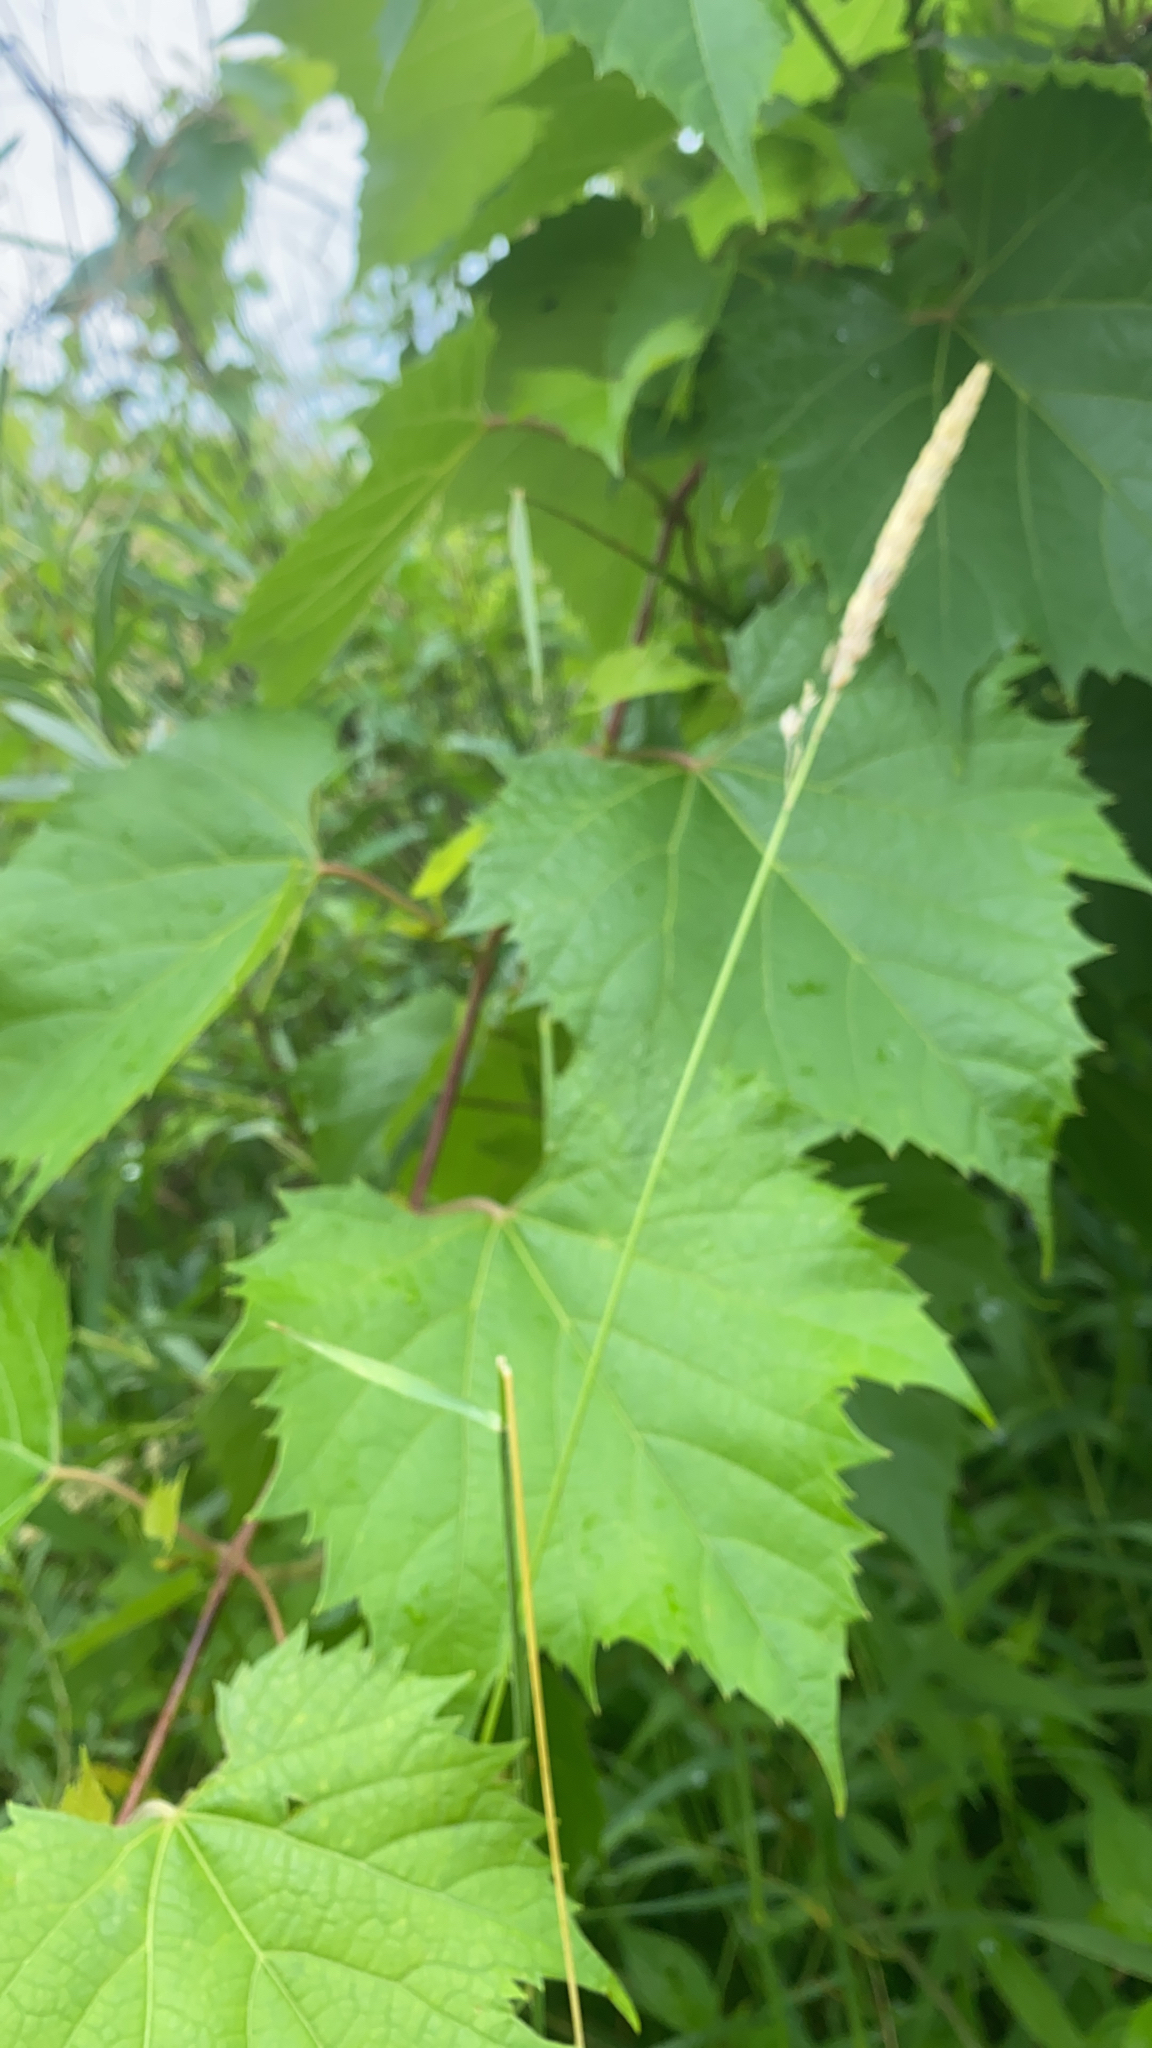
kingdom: Plantae
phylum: Tracheophyta
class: Magnoliopsida
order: Vitales
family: Vitaceae
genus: Vitis
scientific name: Vitis riparia
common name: Frost grape
